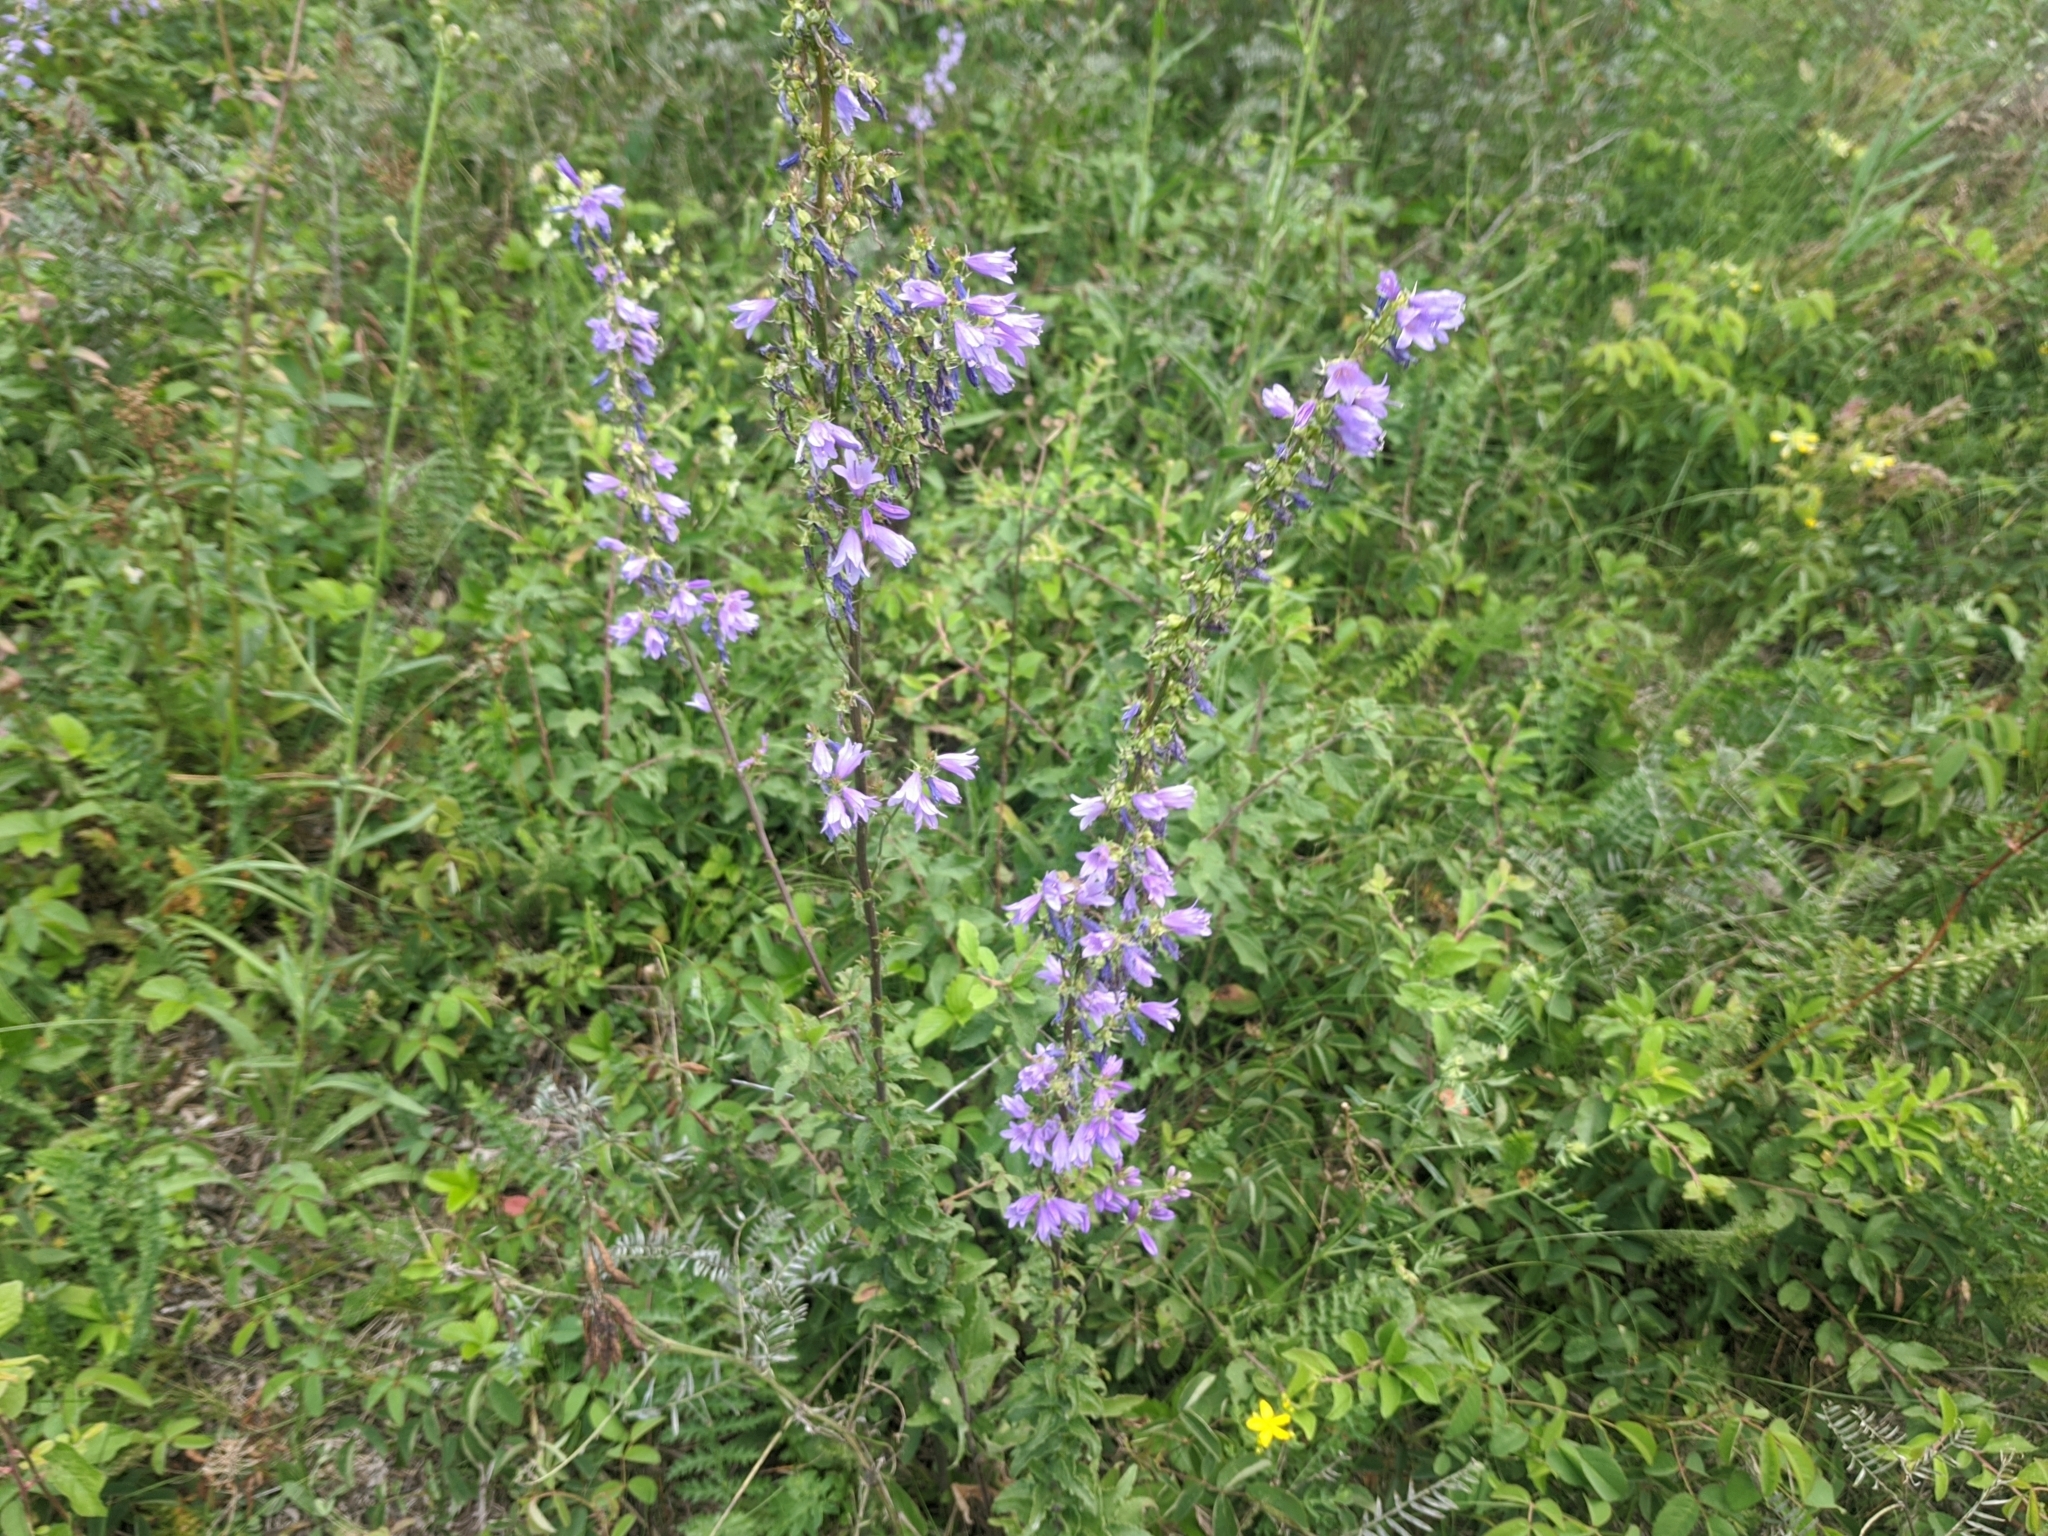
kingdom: Plantae
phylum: Tracheophyta
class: Magnoliopsida
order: Asterales
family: Campanulaceae
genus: Campanula
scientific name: Campanula bononiensis
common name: Pale bellflower
